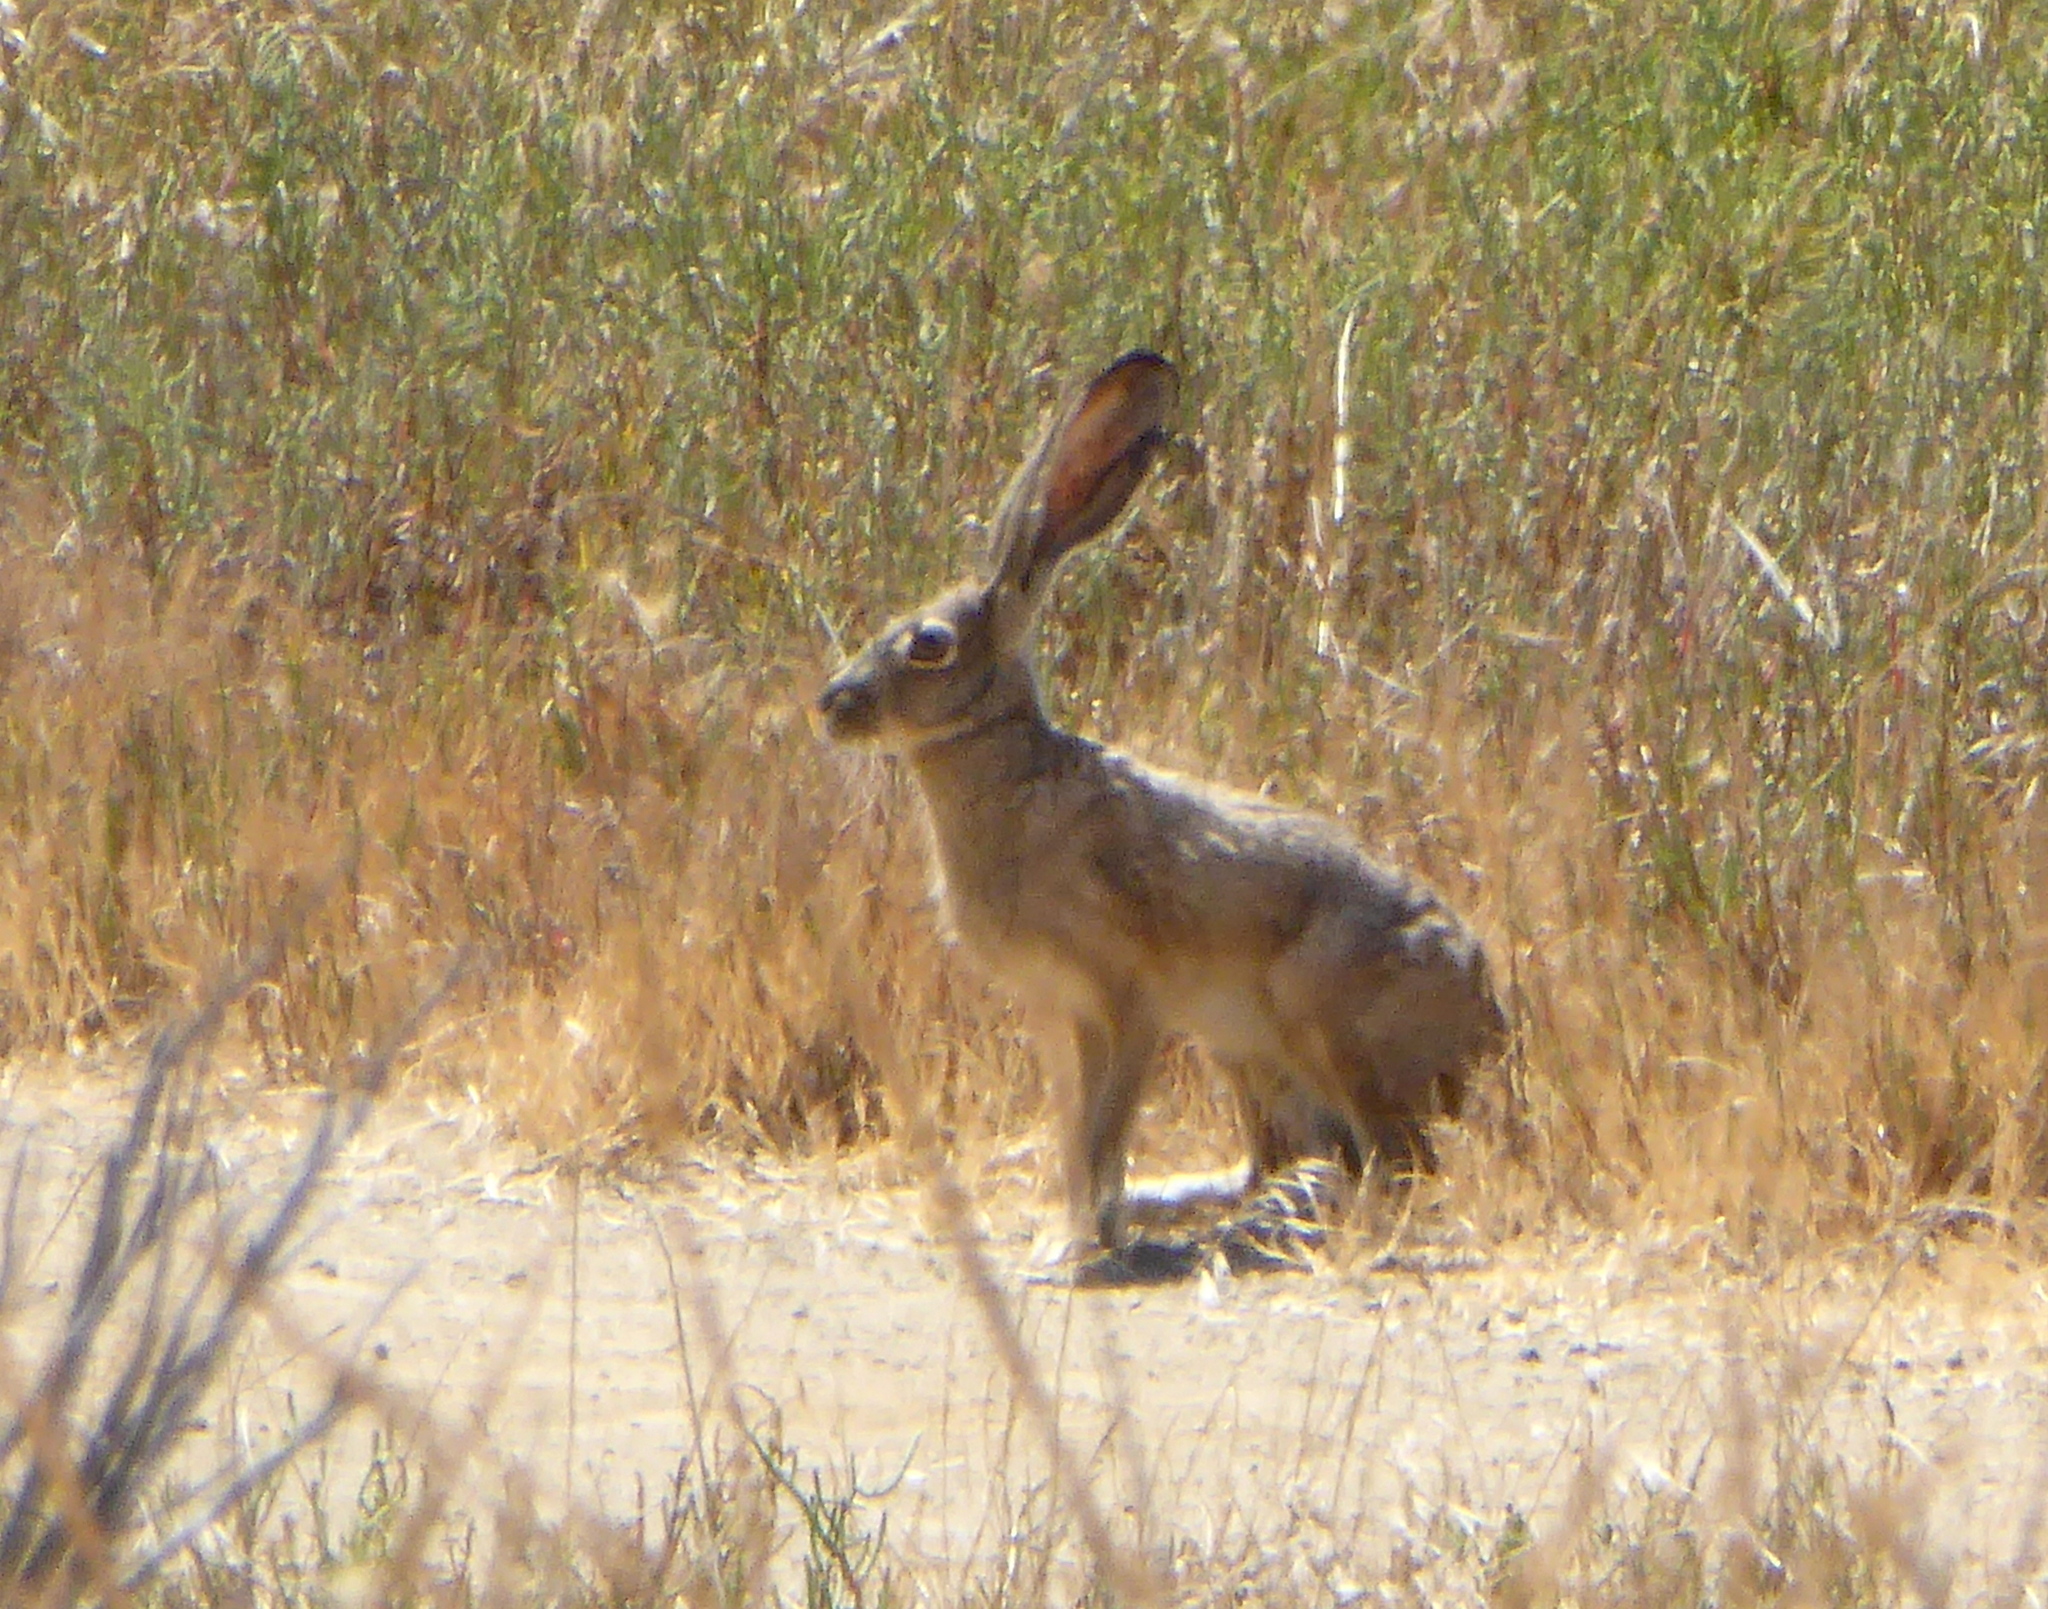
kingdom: Animalia
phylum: Chordata
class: Mammalia
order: Lagomorpha
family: Leporidae
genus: Lepus
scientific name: Lepus californicus
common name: Black-tailed jackrabbit
